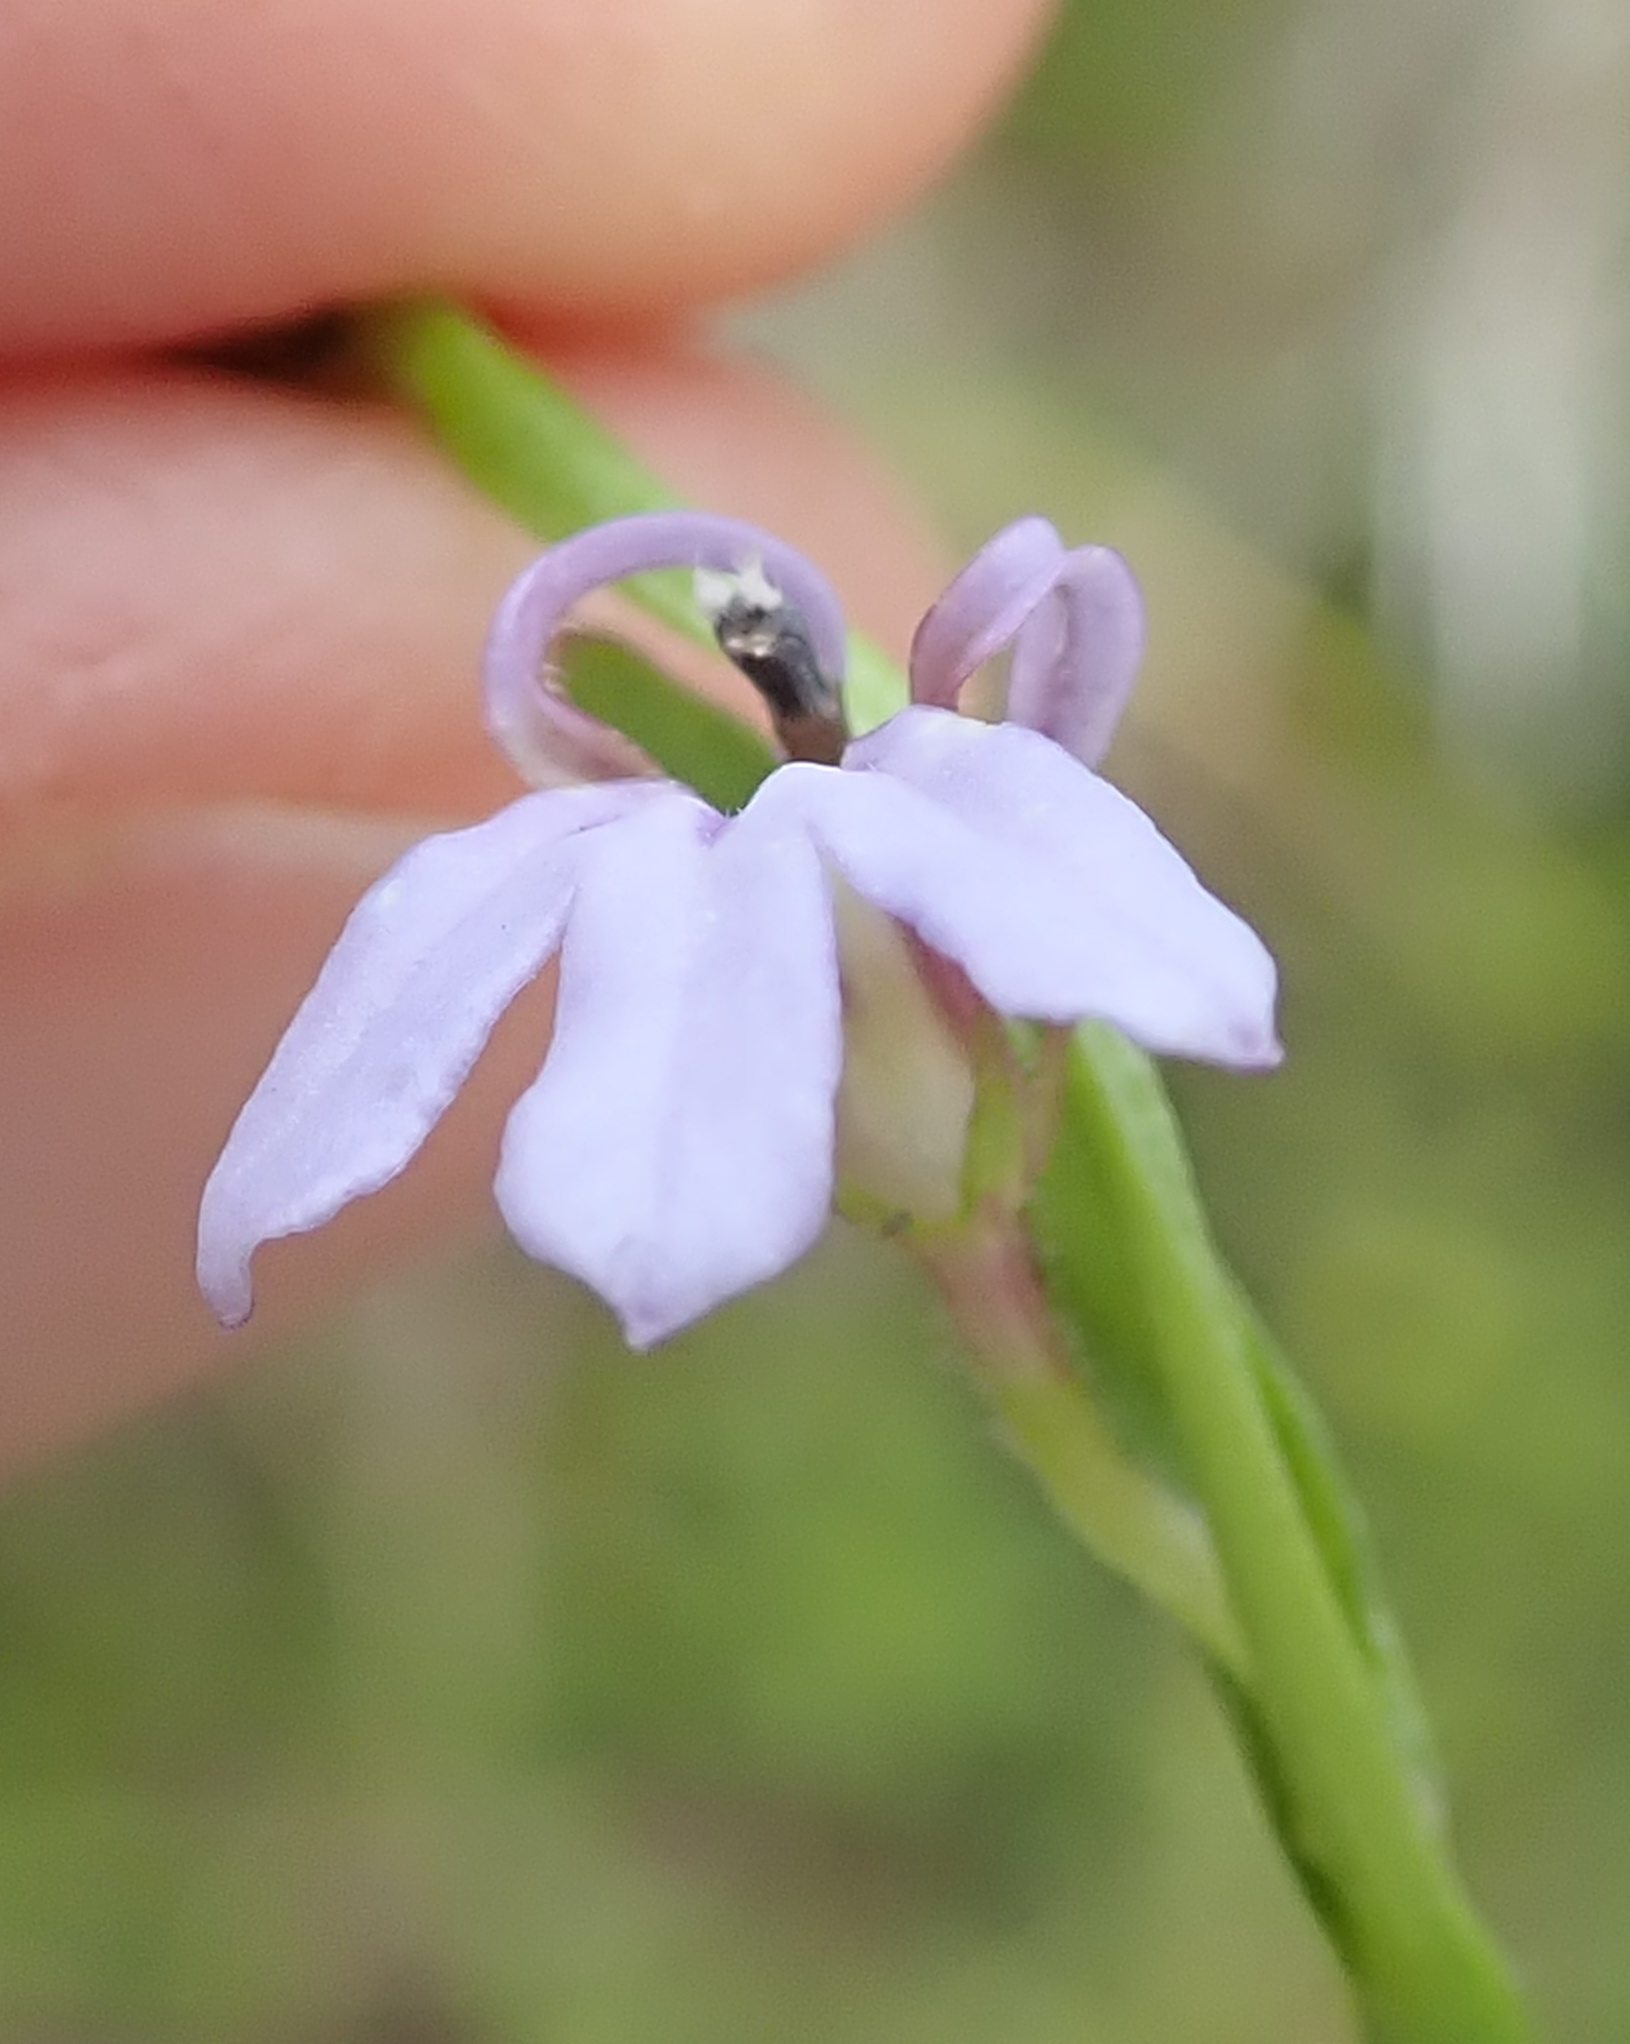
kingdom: Plantae
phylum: Tracheophyta
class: Magnoliopsida
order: Asterales
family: Campanulaceae
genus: Lobelia
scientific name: Lobelia anceps
